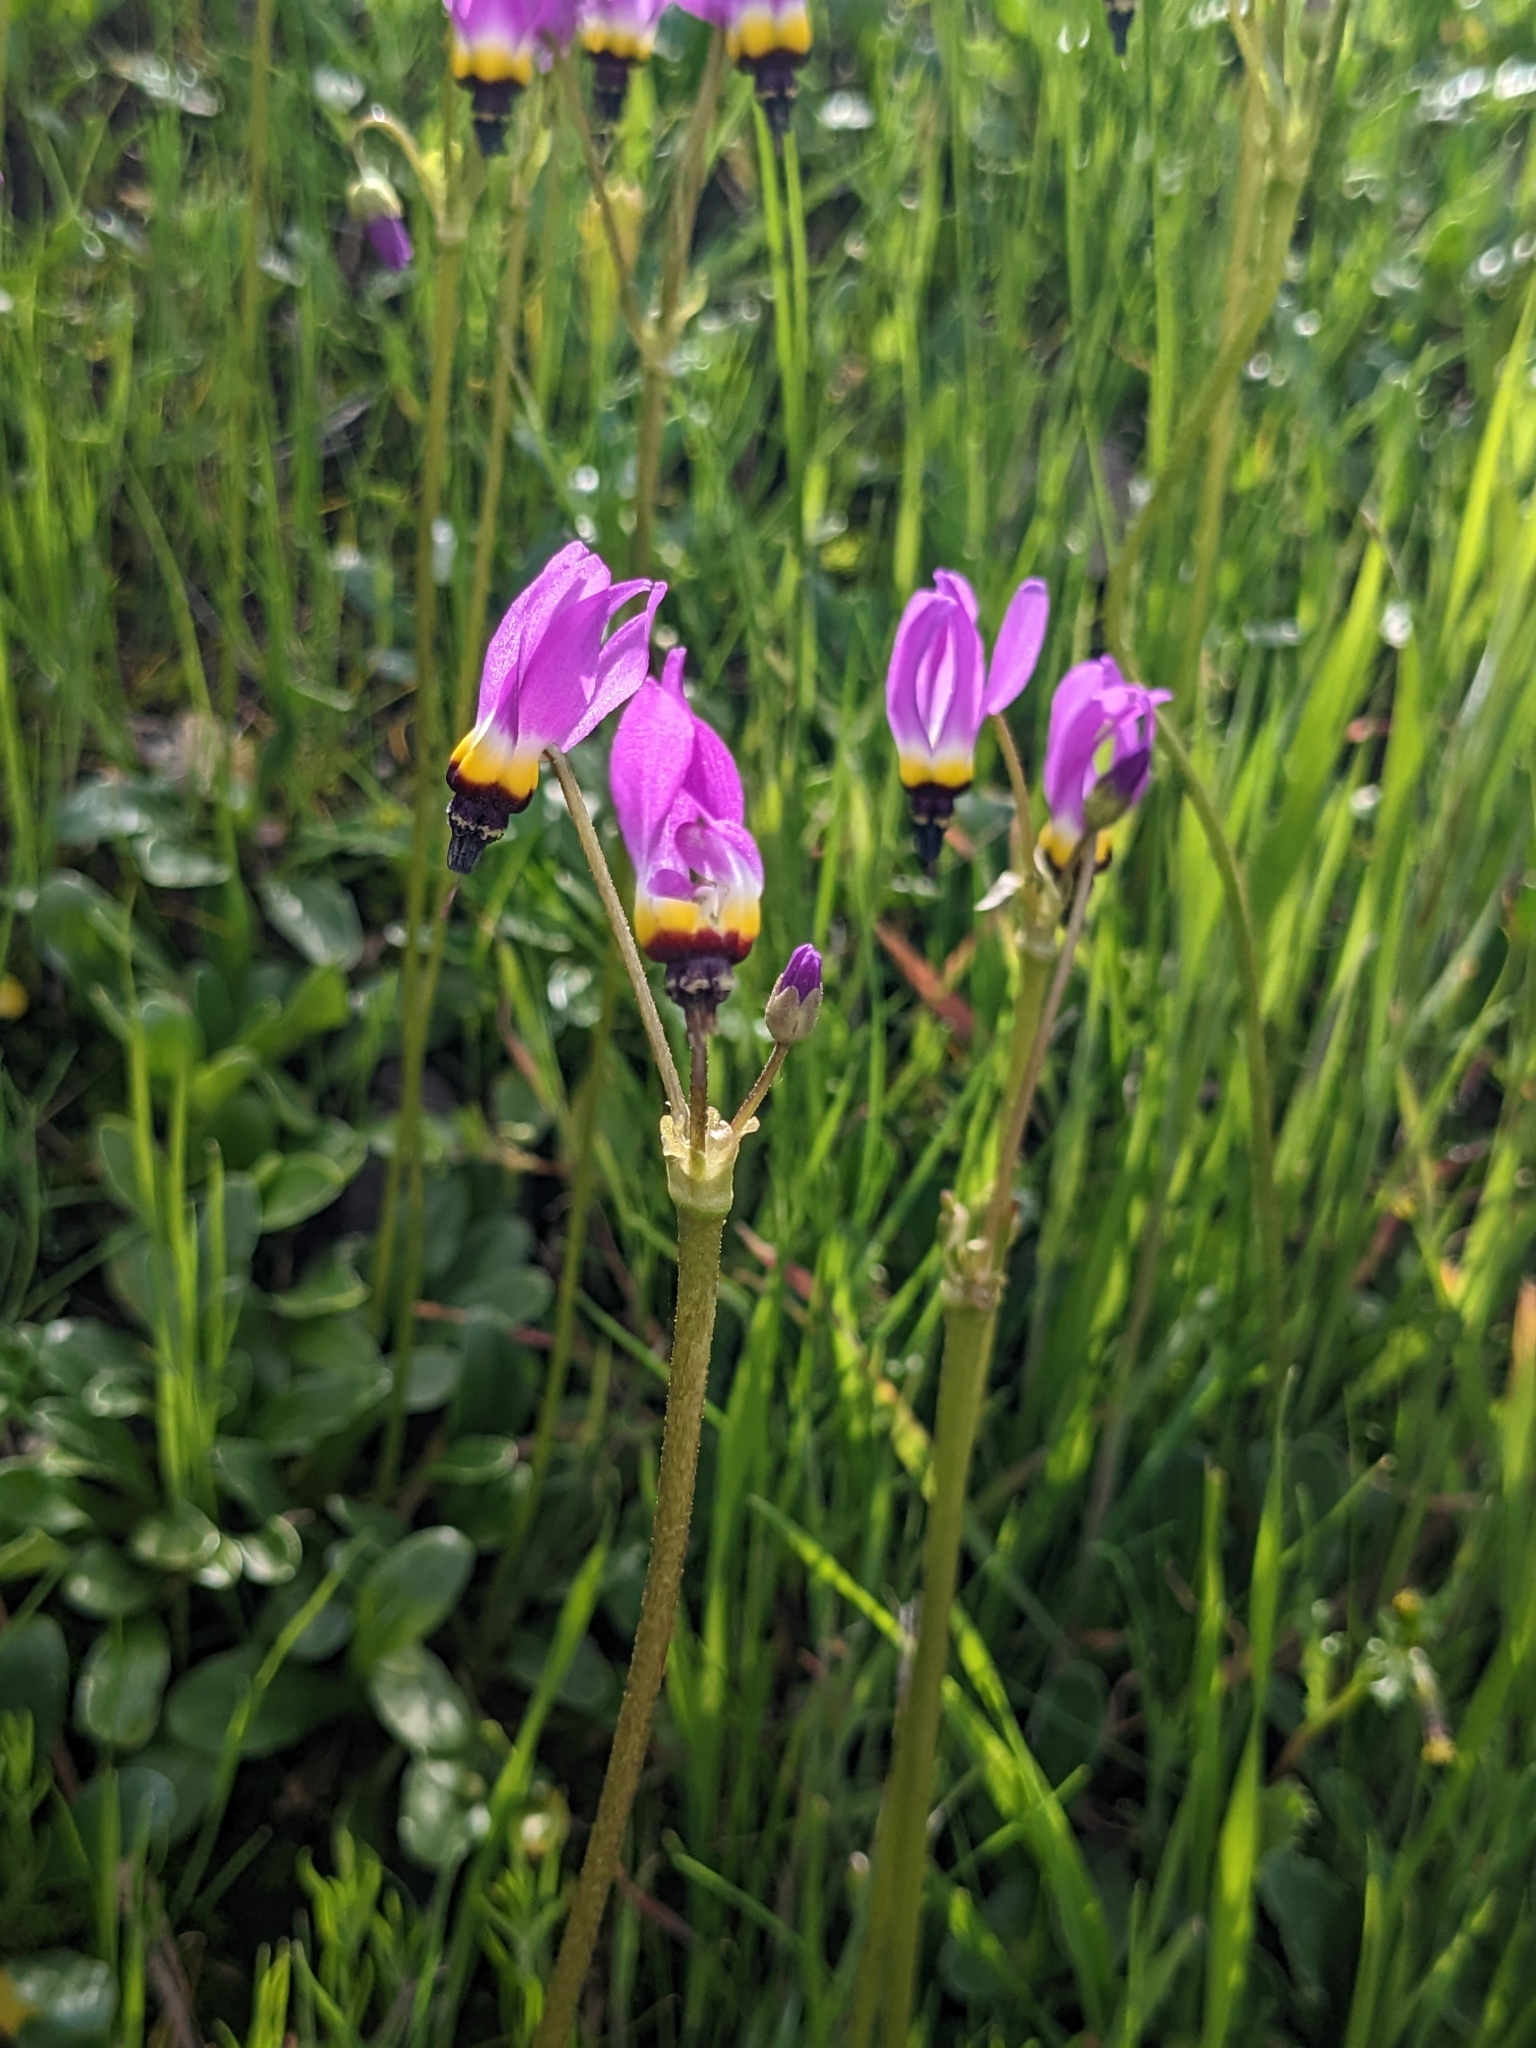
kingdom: Plantae
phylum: Tracheophyta
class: Magnoliopsida
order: Ericales
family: Primulaceae
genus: Dodecatheon
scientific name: Dodecatheon clevelandii
